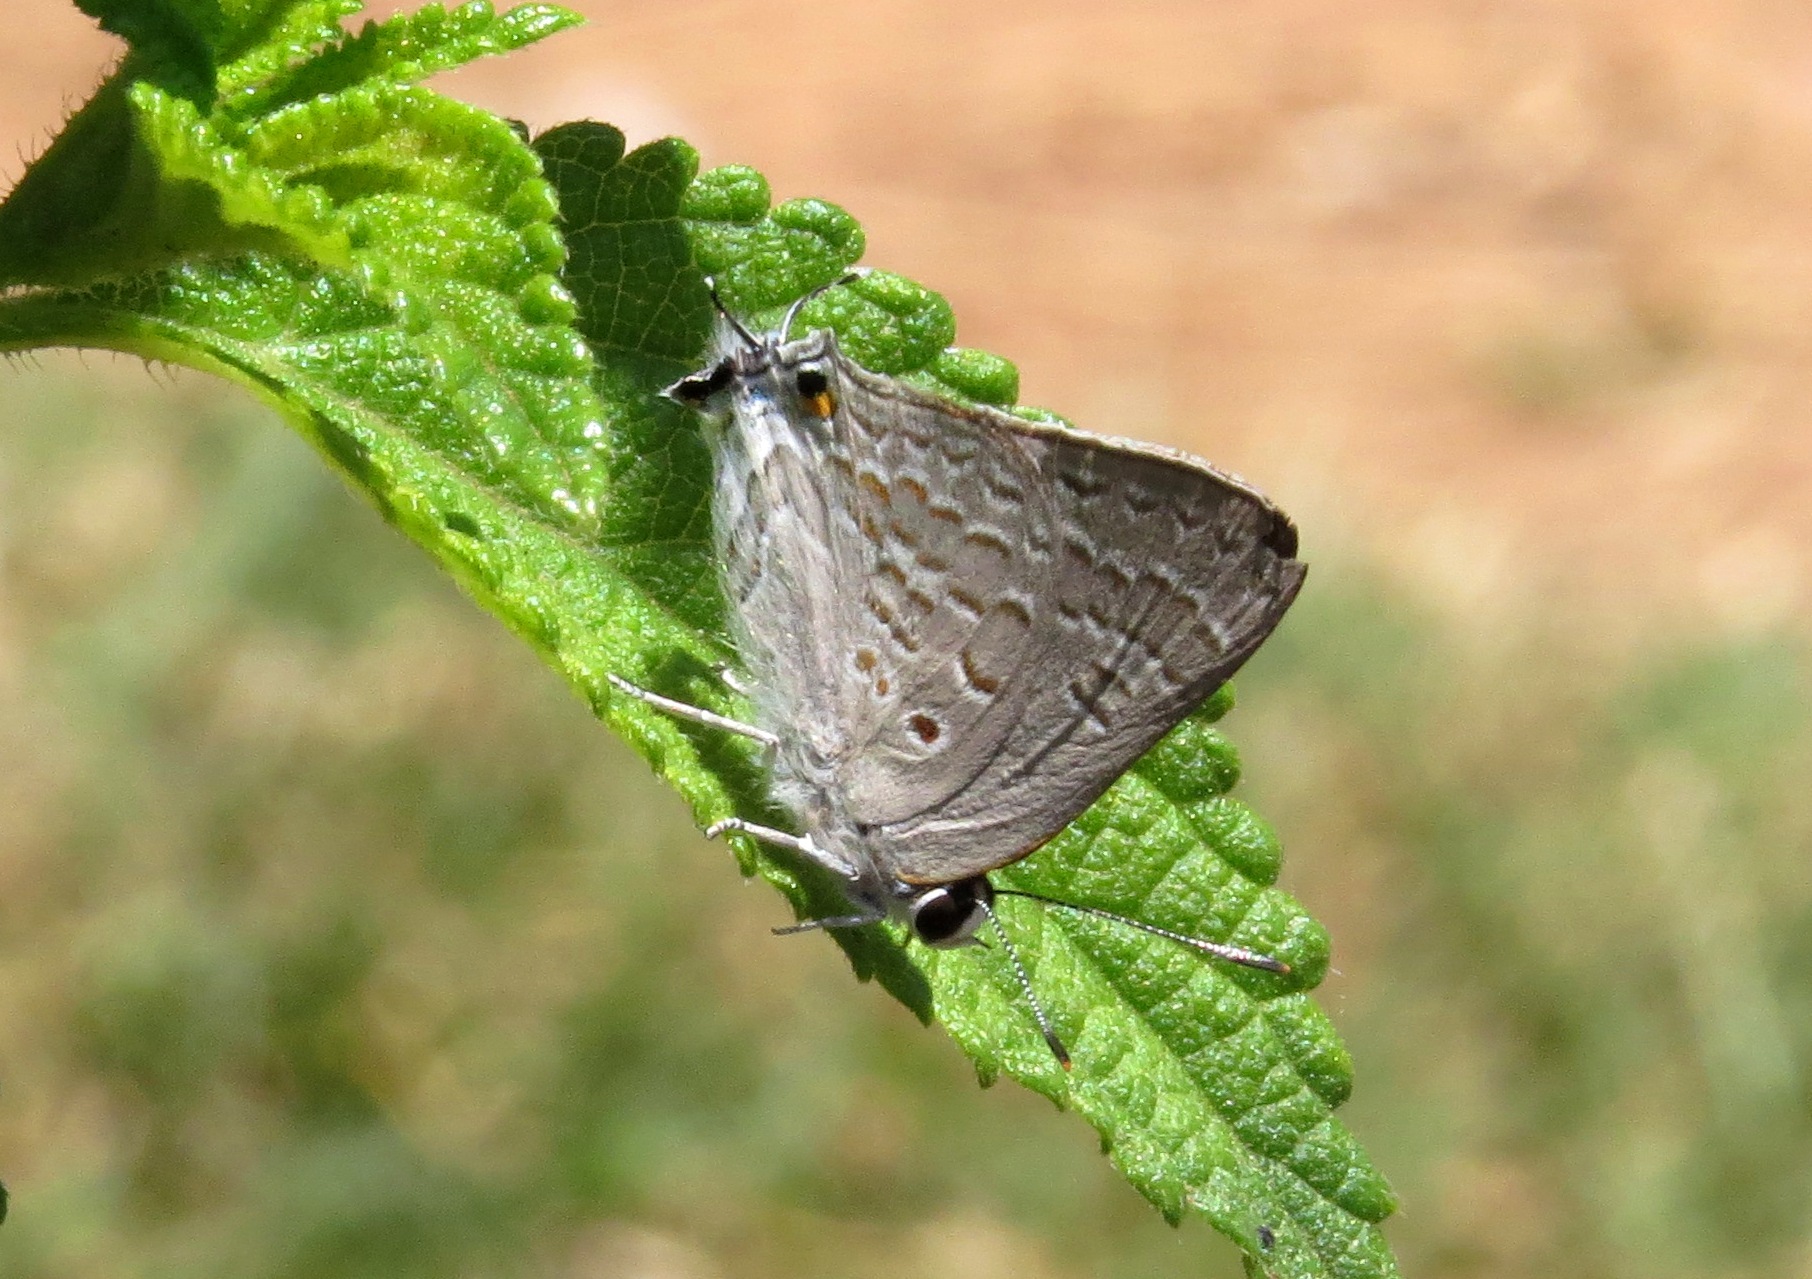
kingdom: Animalia
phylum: Arthropoda
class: Insecta
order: Lepidoptera
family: Lycaenidae
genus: Deudorix
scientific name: Deudorix antalus
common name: Brown playboy
